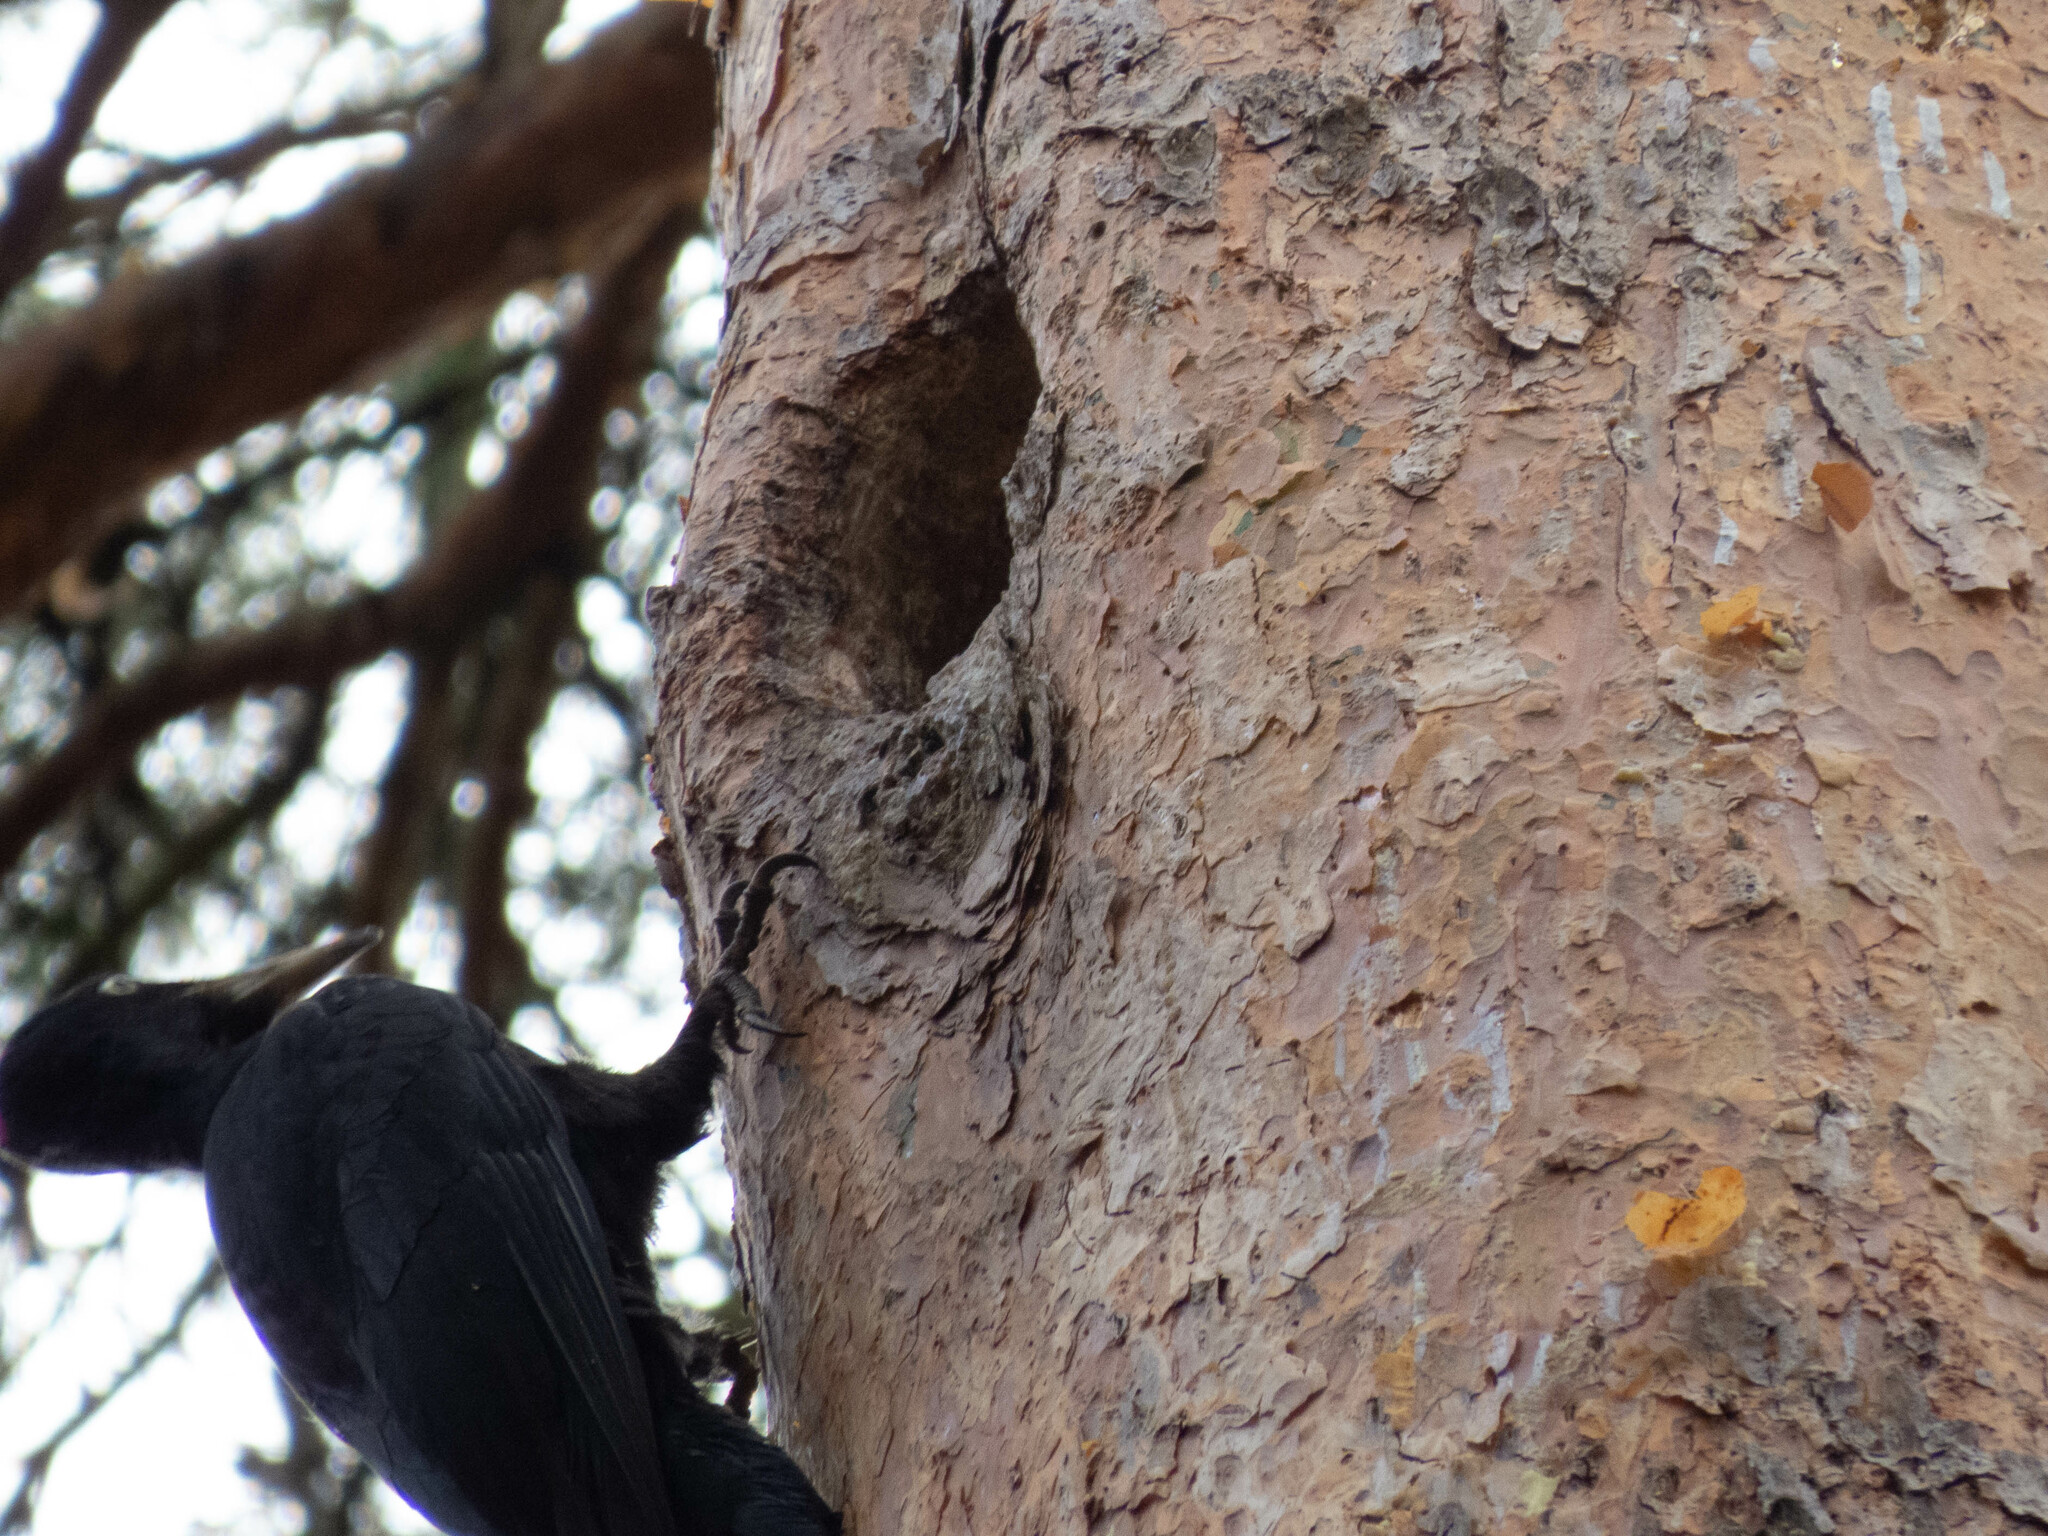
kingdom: Animalia
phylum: Chordata
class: Aves
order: Piciformes
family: Picidae
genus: Dryocopus
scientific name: Dryocopus martius
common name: Black woodpecker
